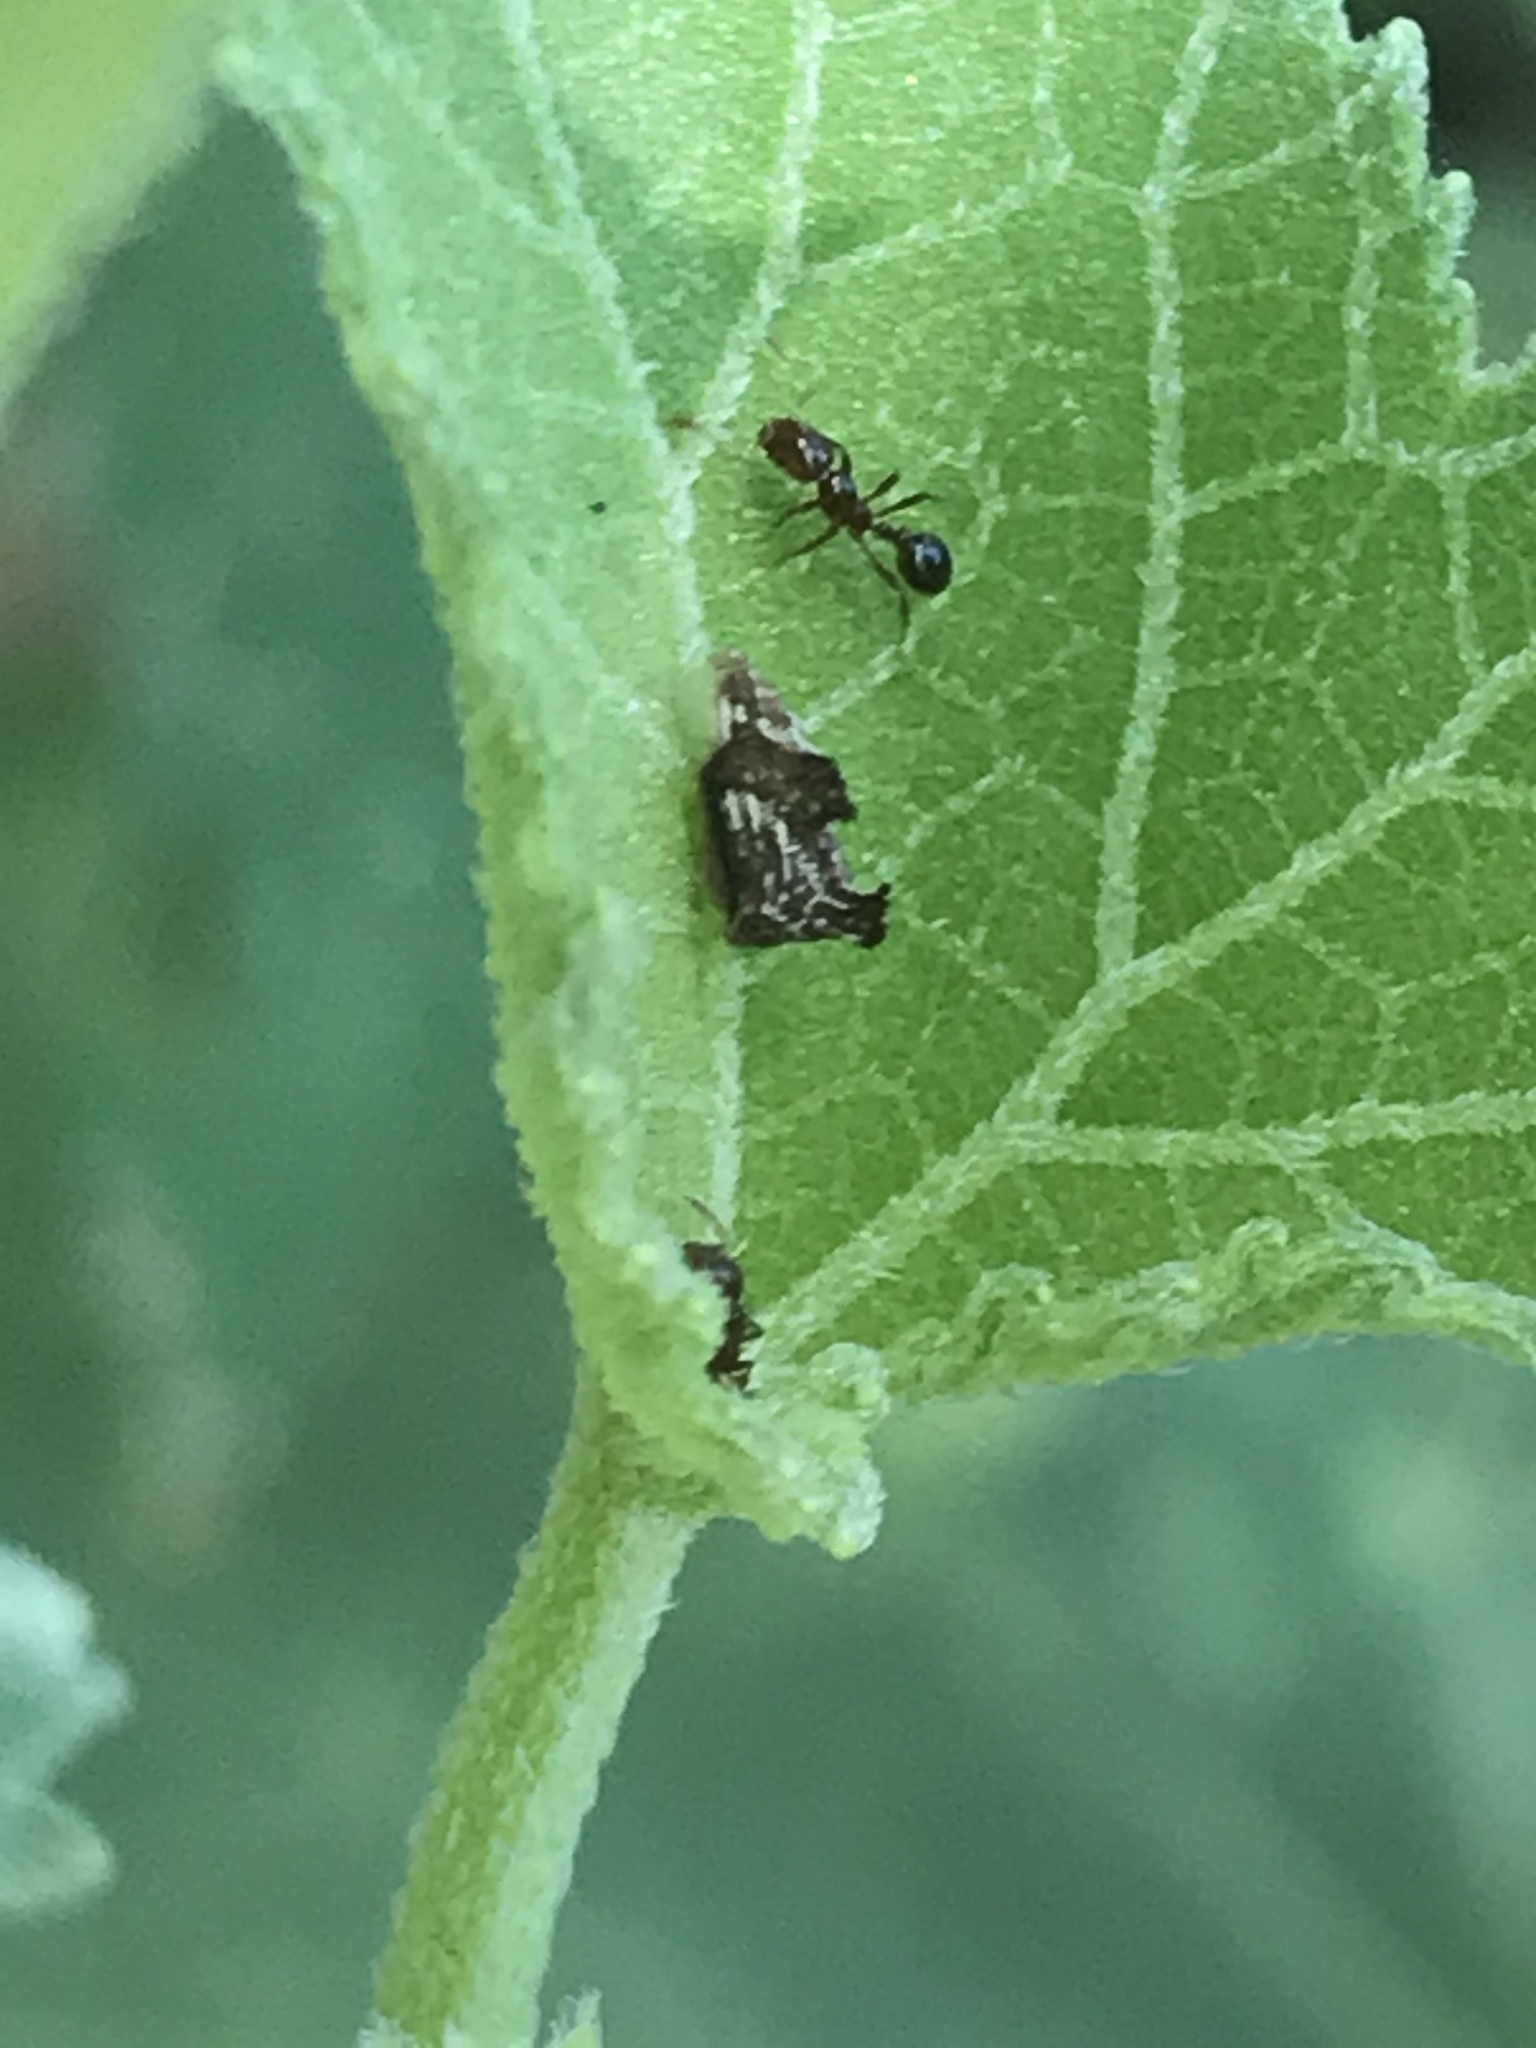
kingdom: Animalia
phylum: Arthropoda
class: Insecta
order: Hemiptera
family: Membracidae
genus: Entylia
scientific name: Entylia carinata
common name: Keeled treehopper
